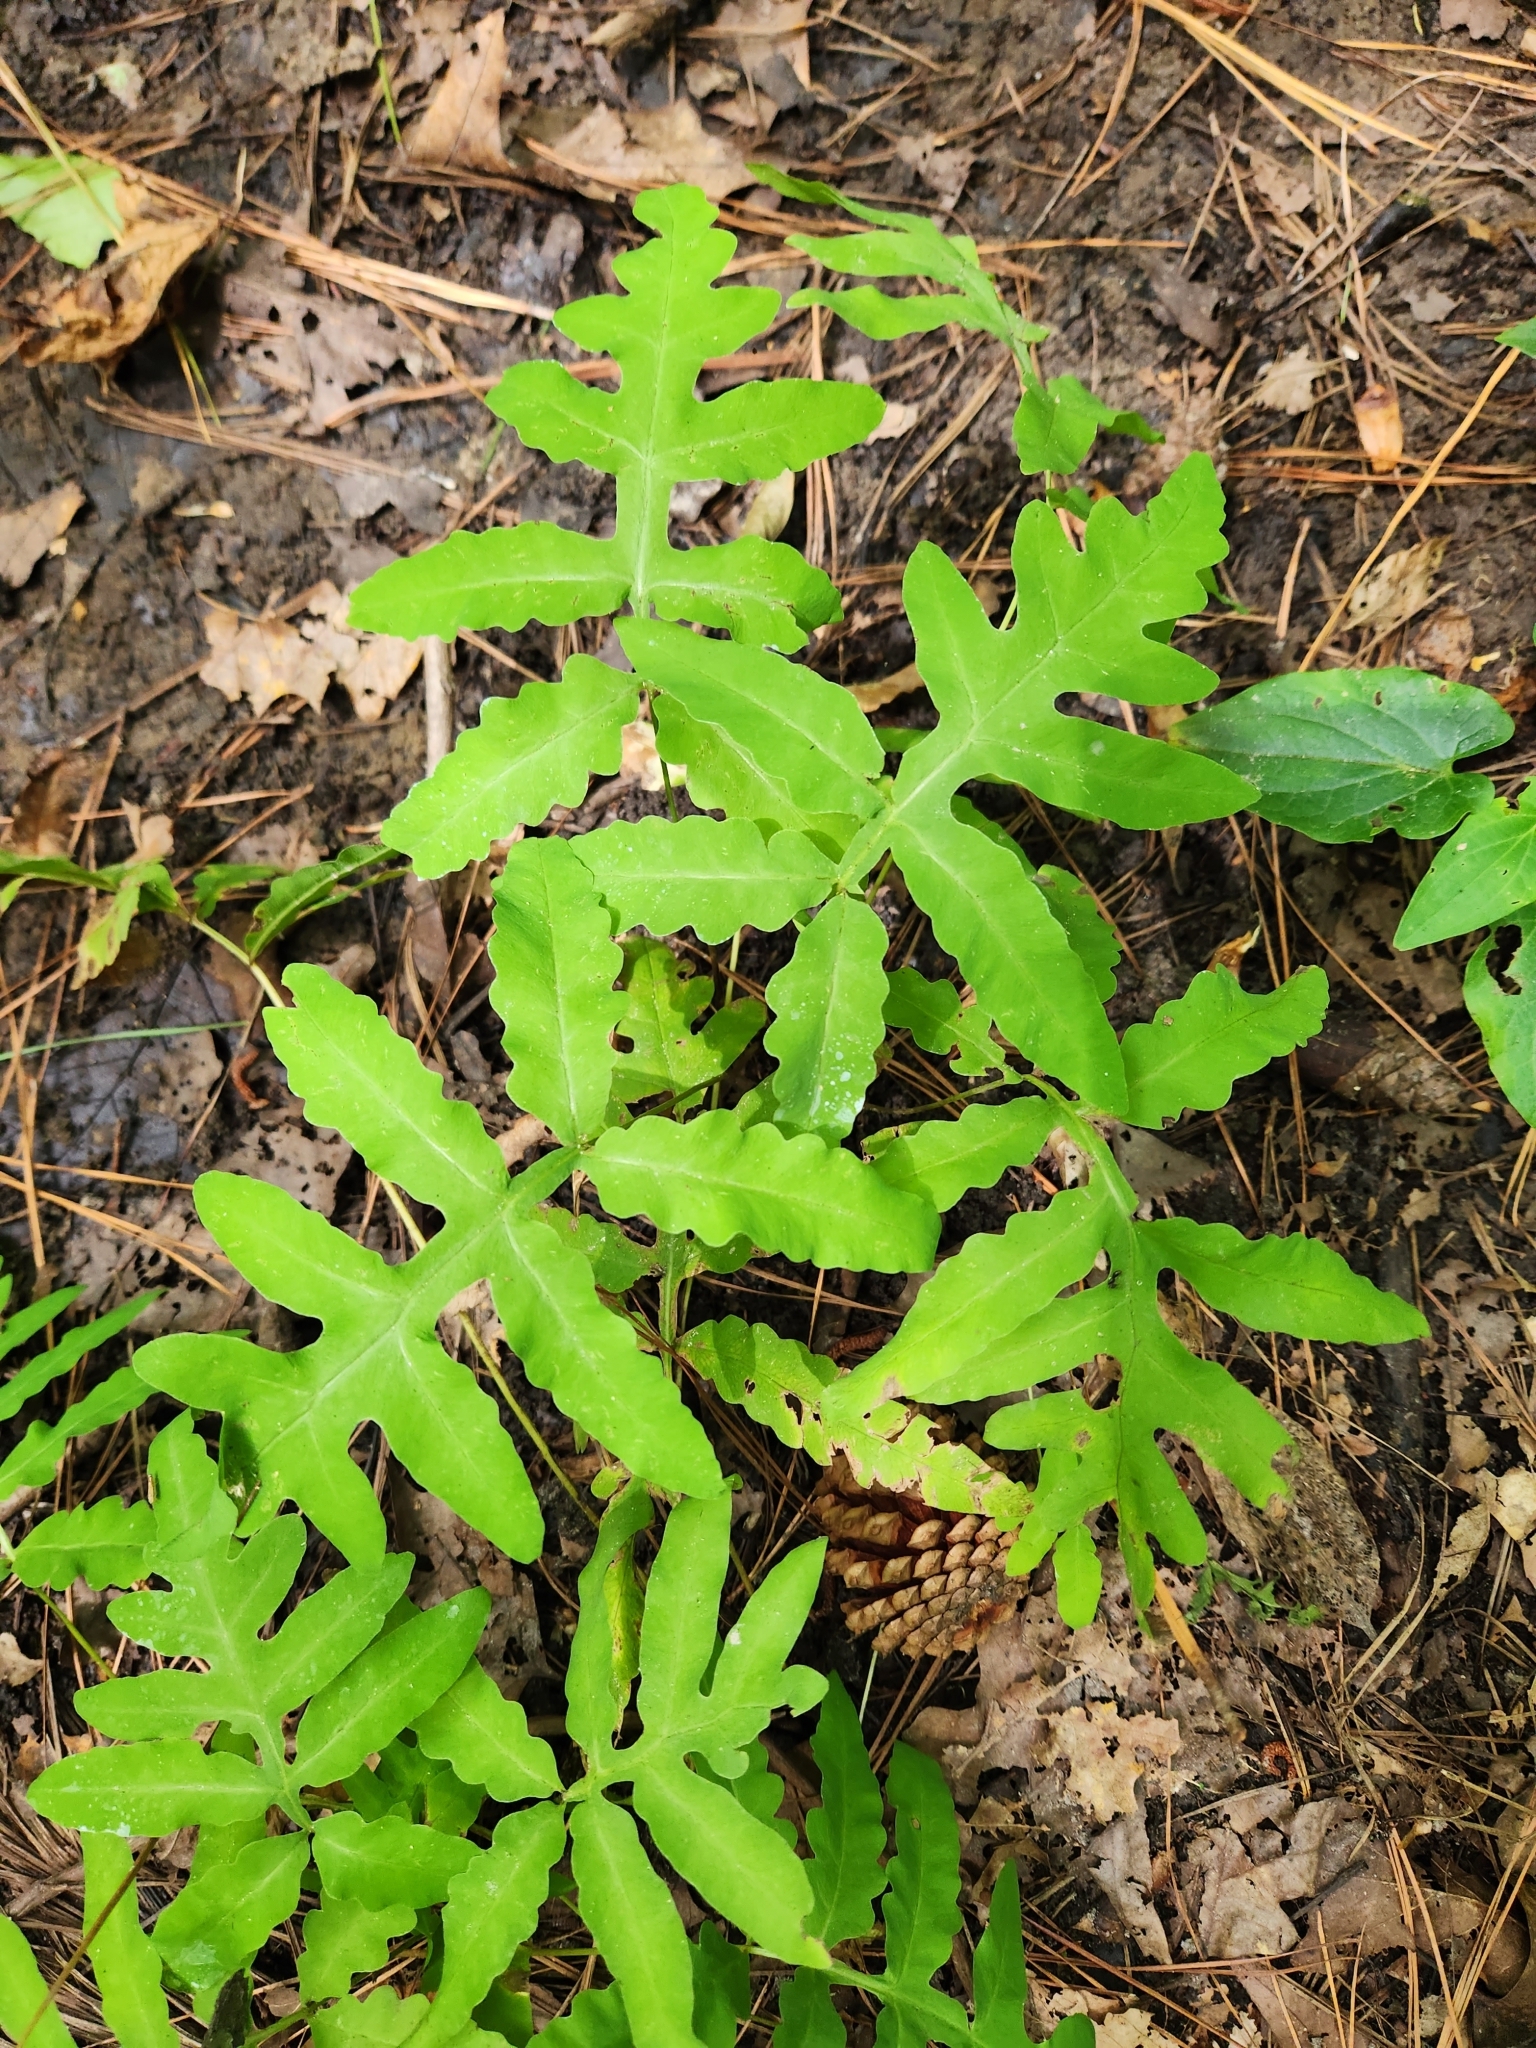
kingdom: Plantae
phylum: Tracheophyta
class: Polypodiopsida
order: Polypodiales
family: Onocleaceae
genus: Onoclea
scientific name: Onoclea sensibilis
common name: Sensitive fern
